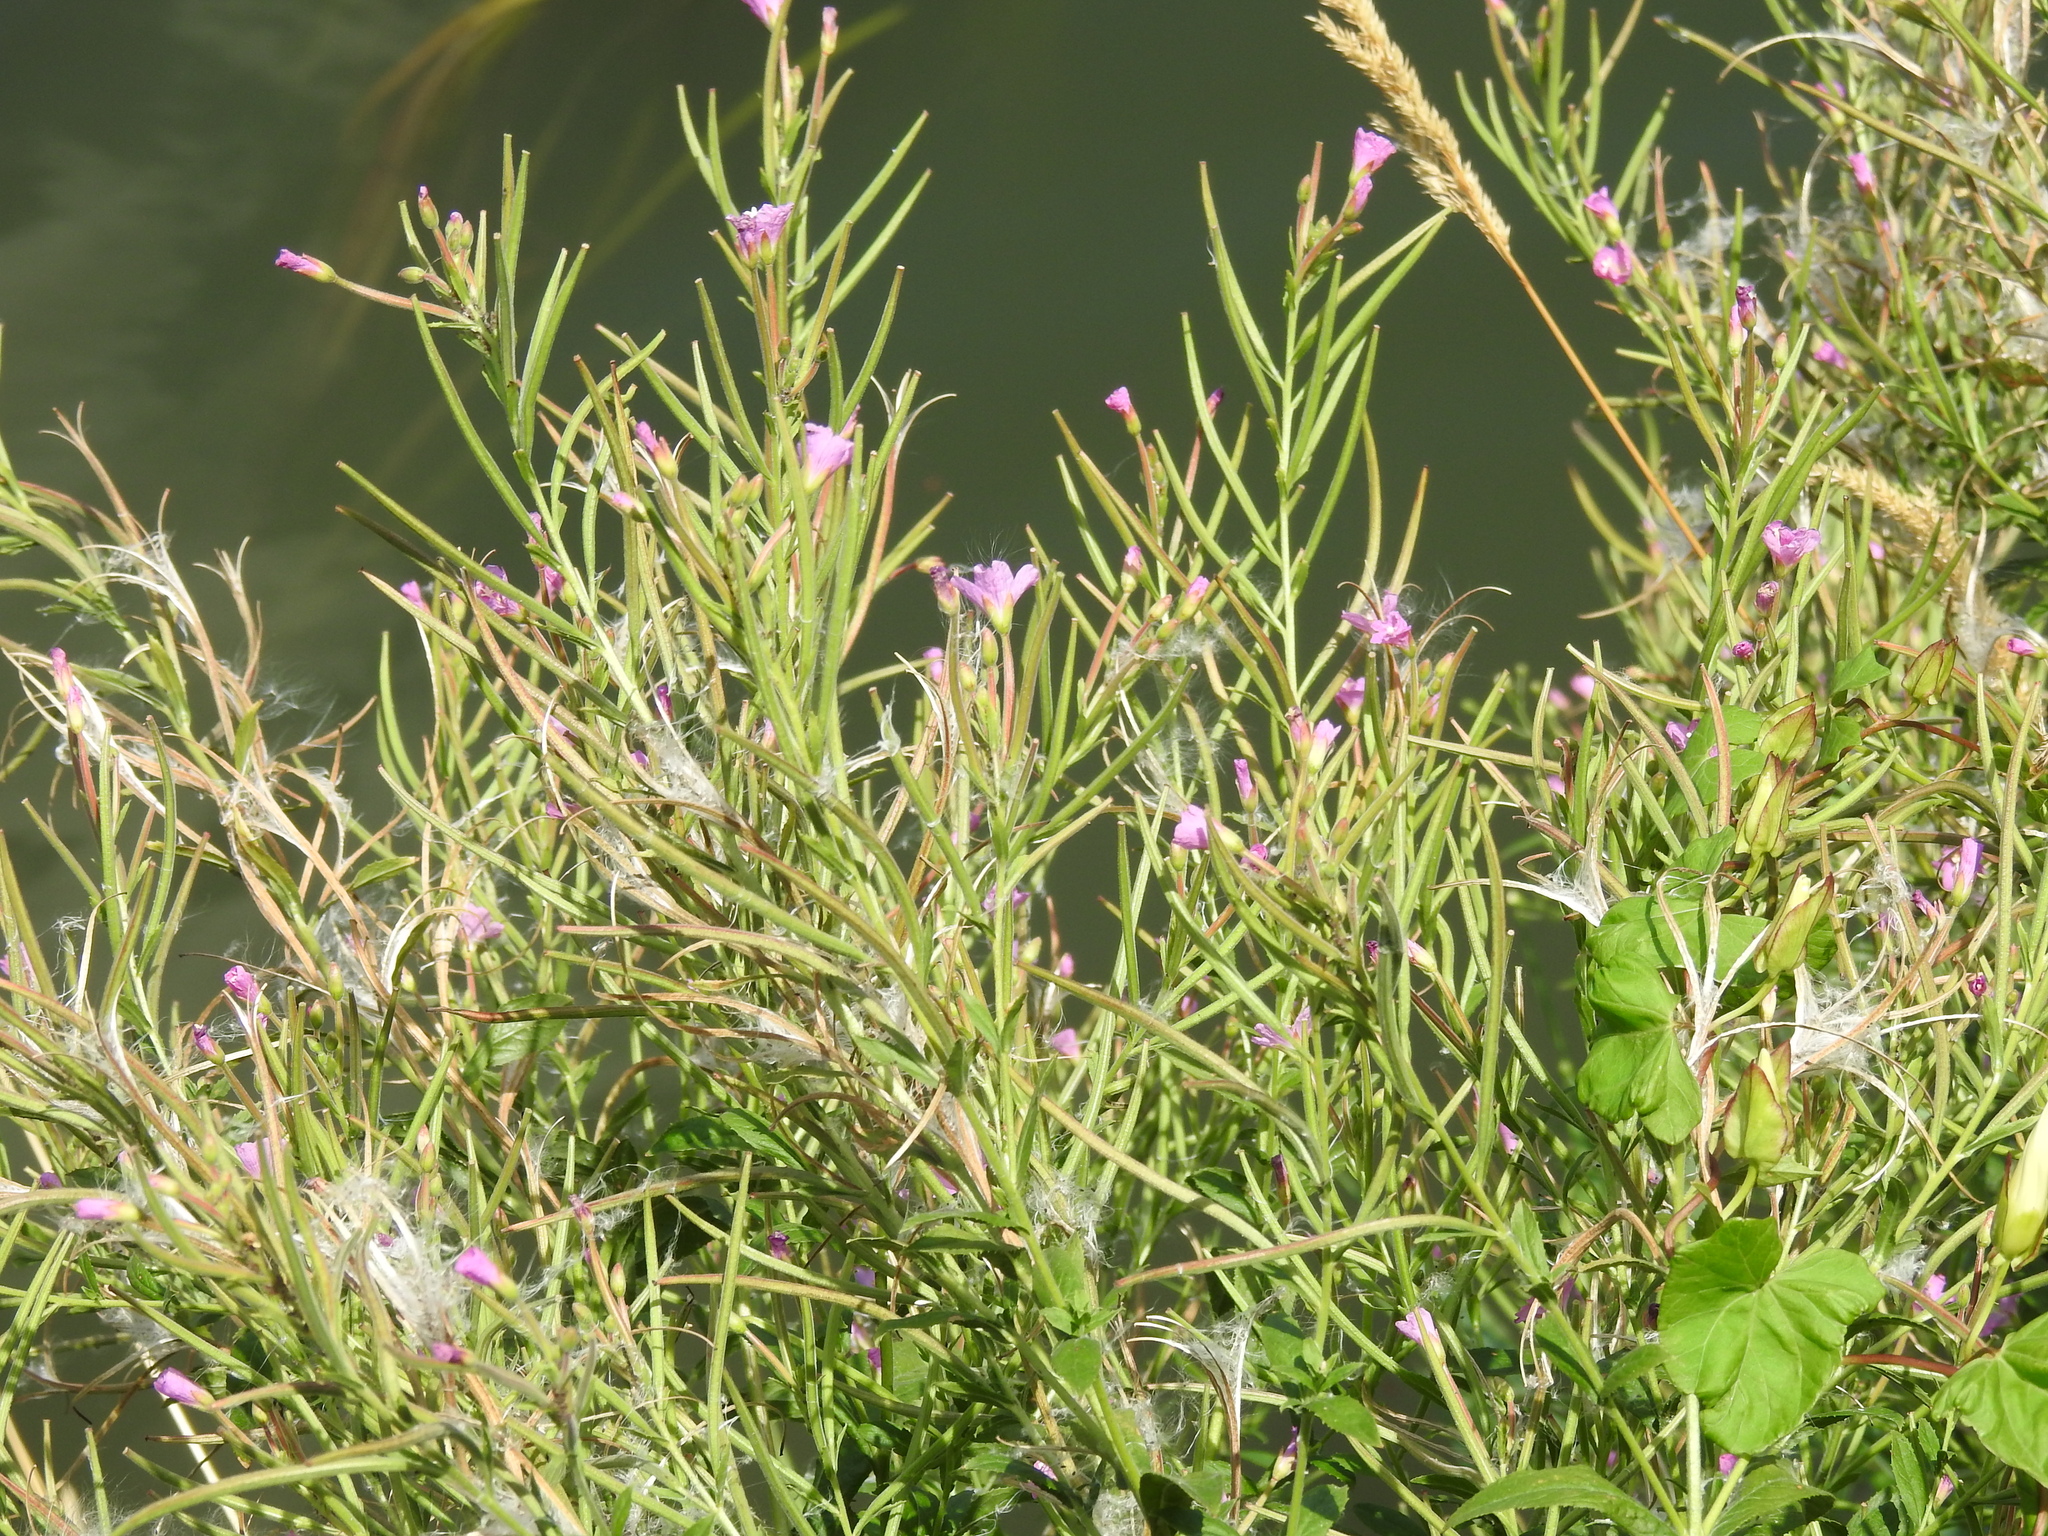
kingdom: Plantae
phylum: Tracheophyta
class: Magnoliopsida
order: Myrtales
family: Onagraceae
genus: Epilobium
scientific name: Epilobium hirsutum
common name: Great willowherb
